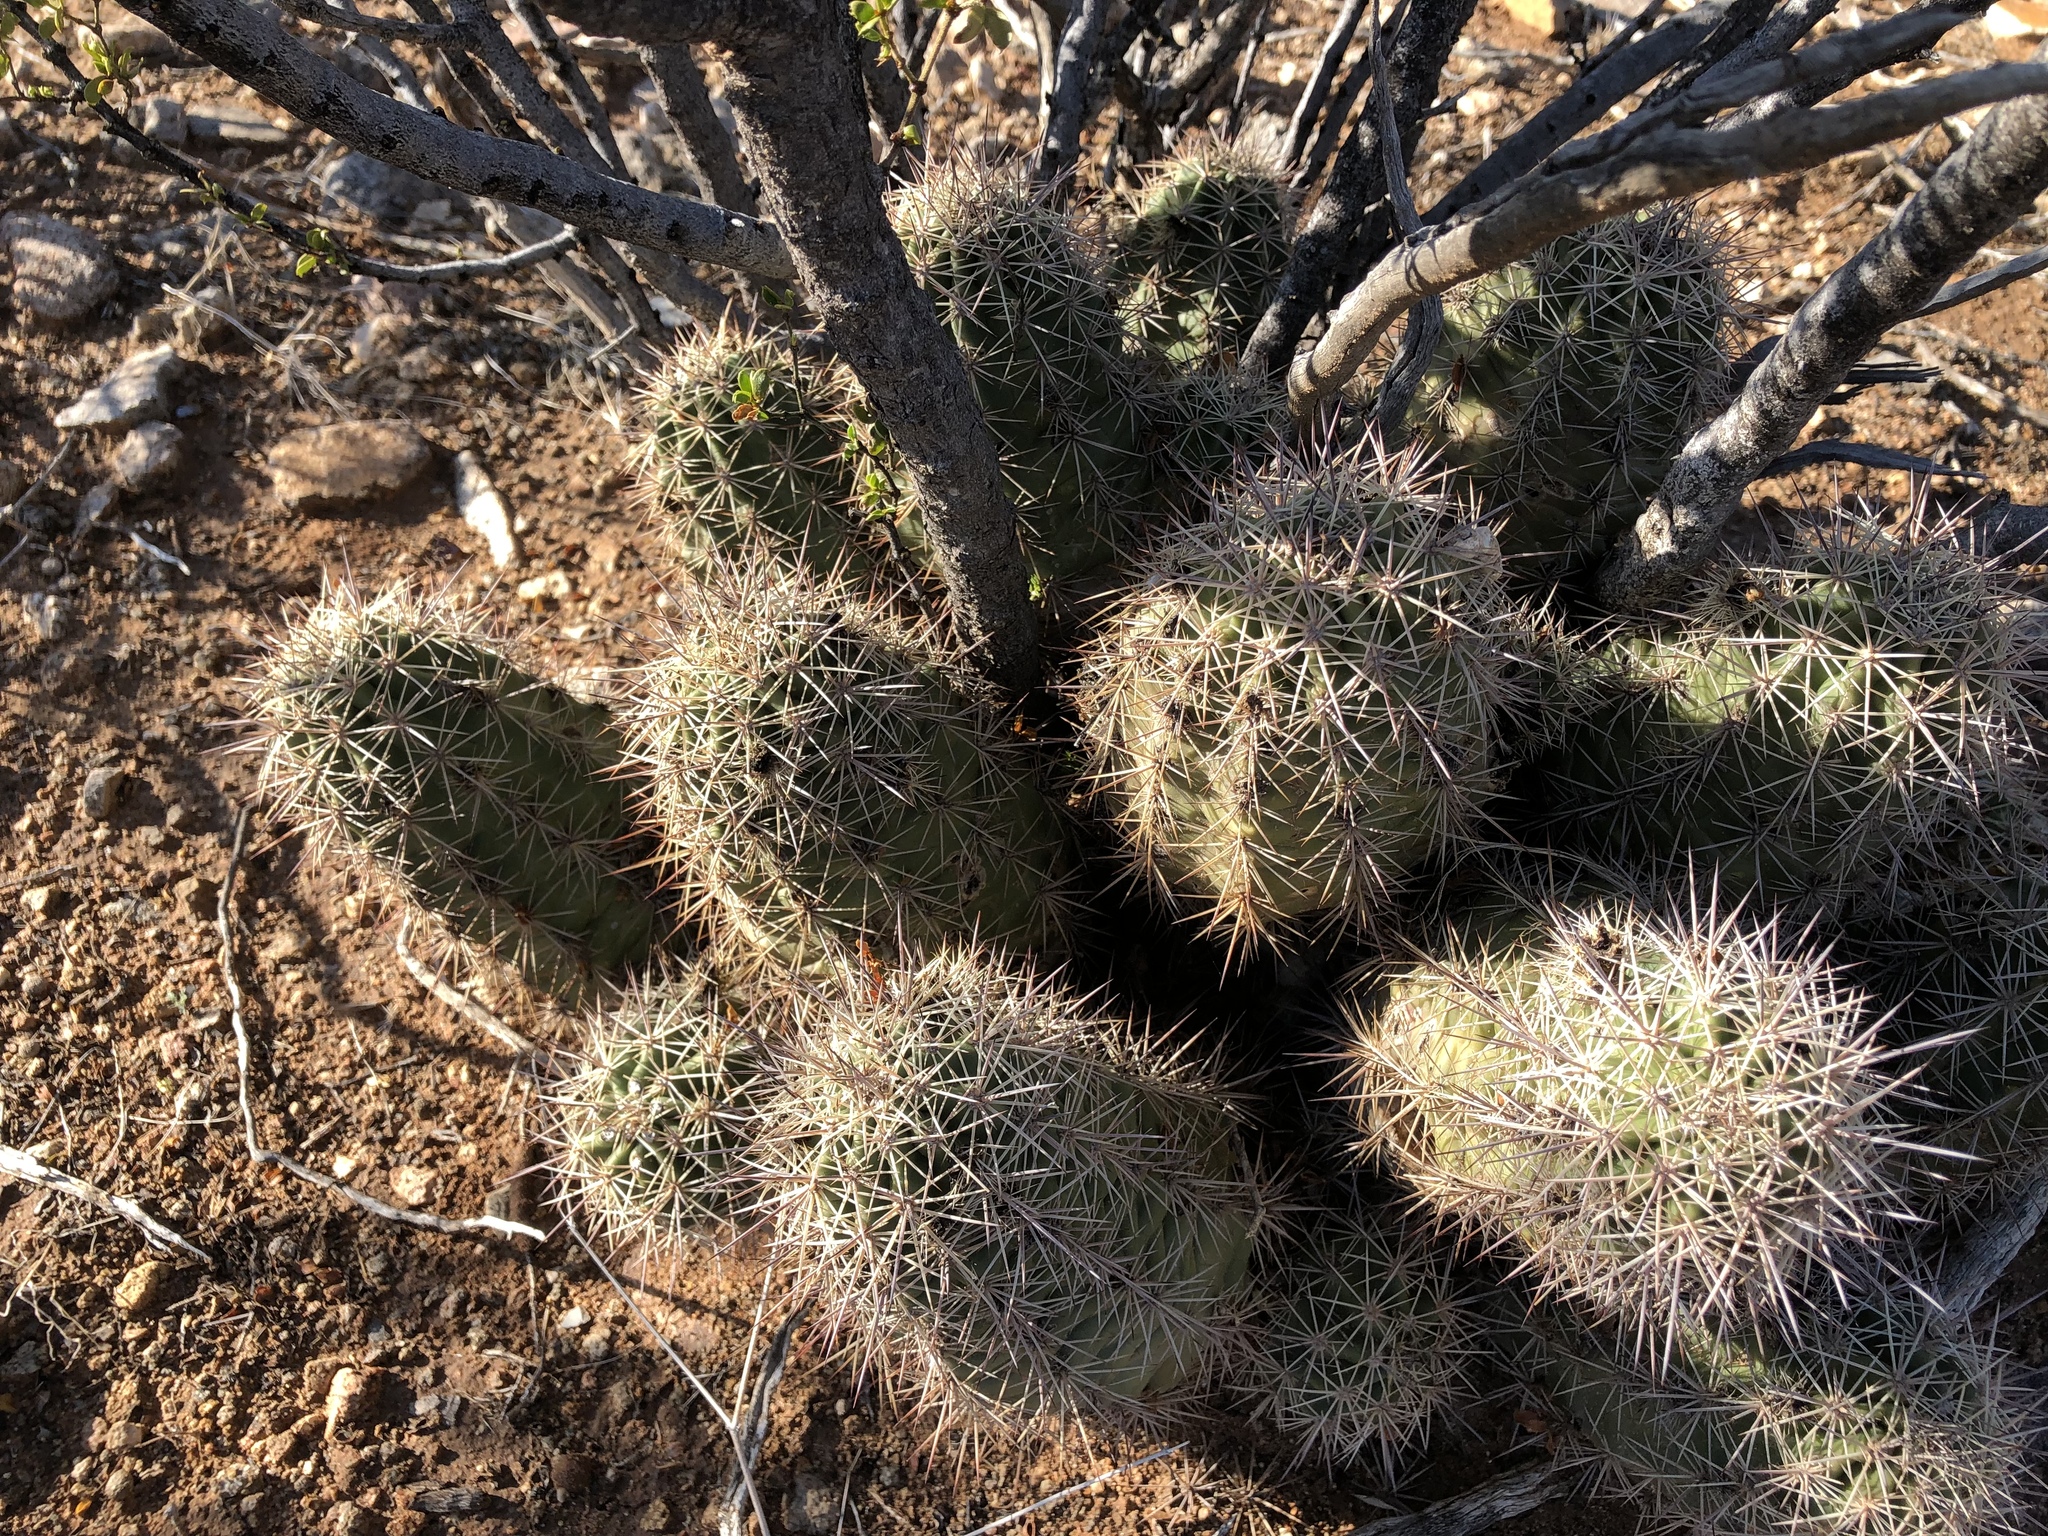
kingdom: Plantae
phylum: Tracheophyta
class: Magnoliopsida
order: Caryophyllales
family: Cactaceae
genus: Echinocereus
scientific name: Echinocereus coccineus
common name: Scarlet hedgehog cactus
